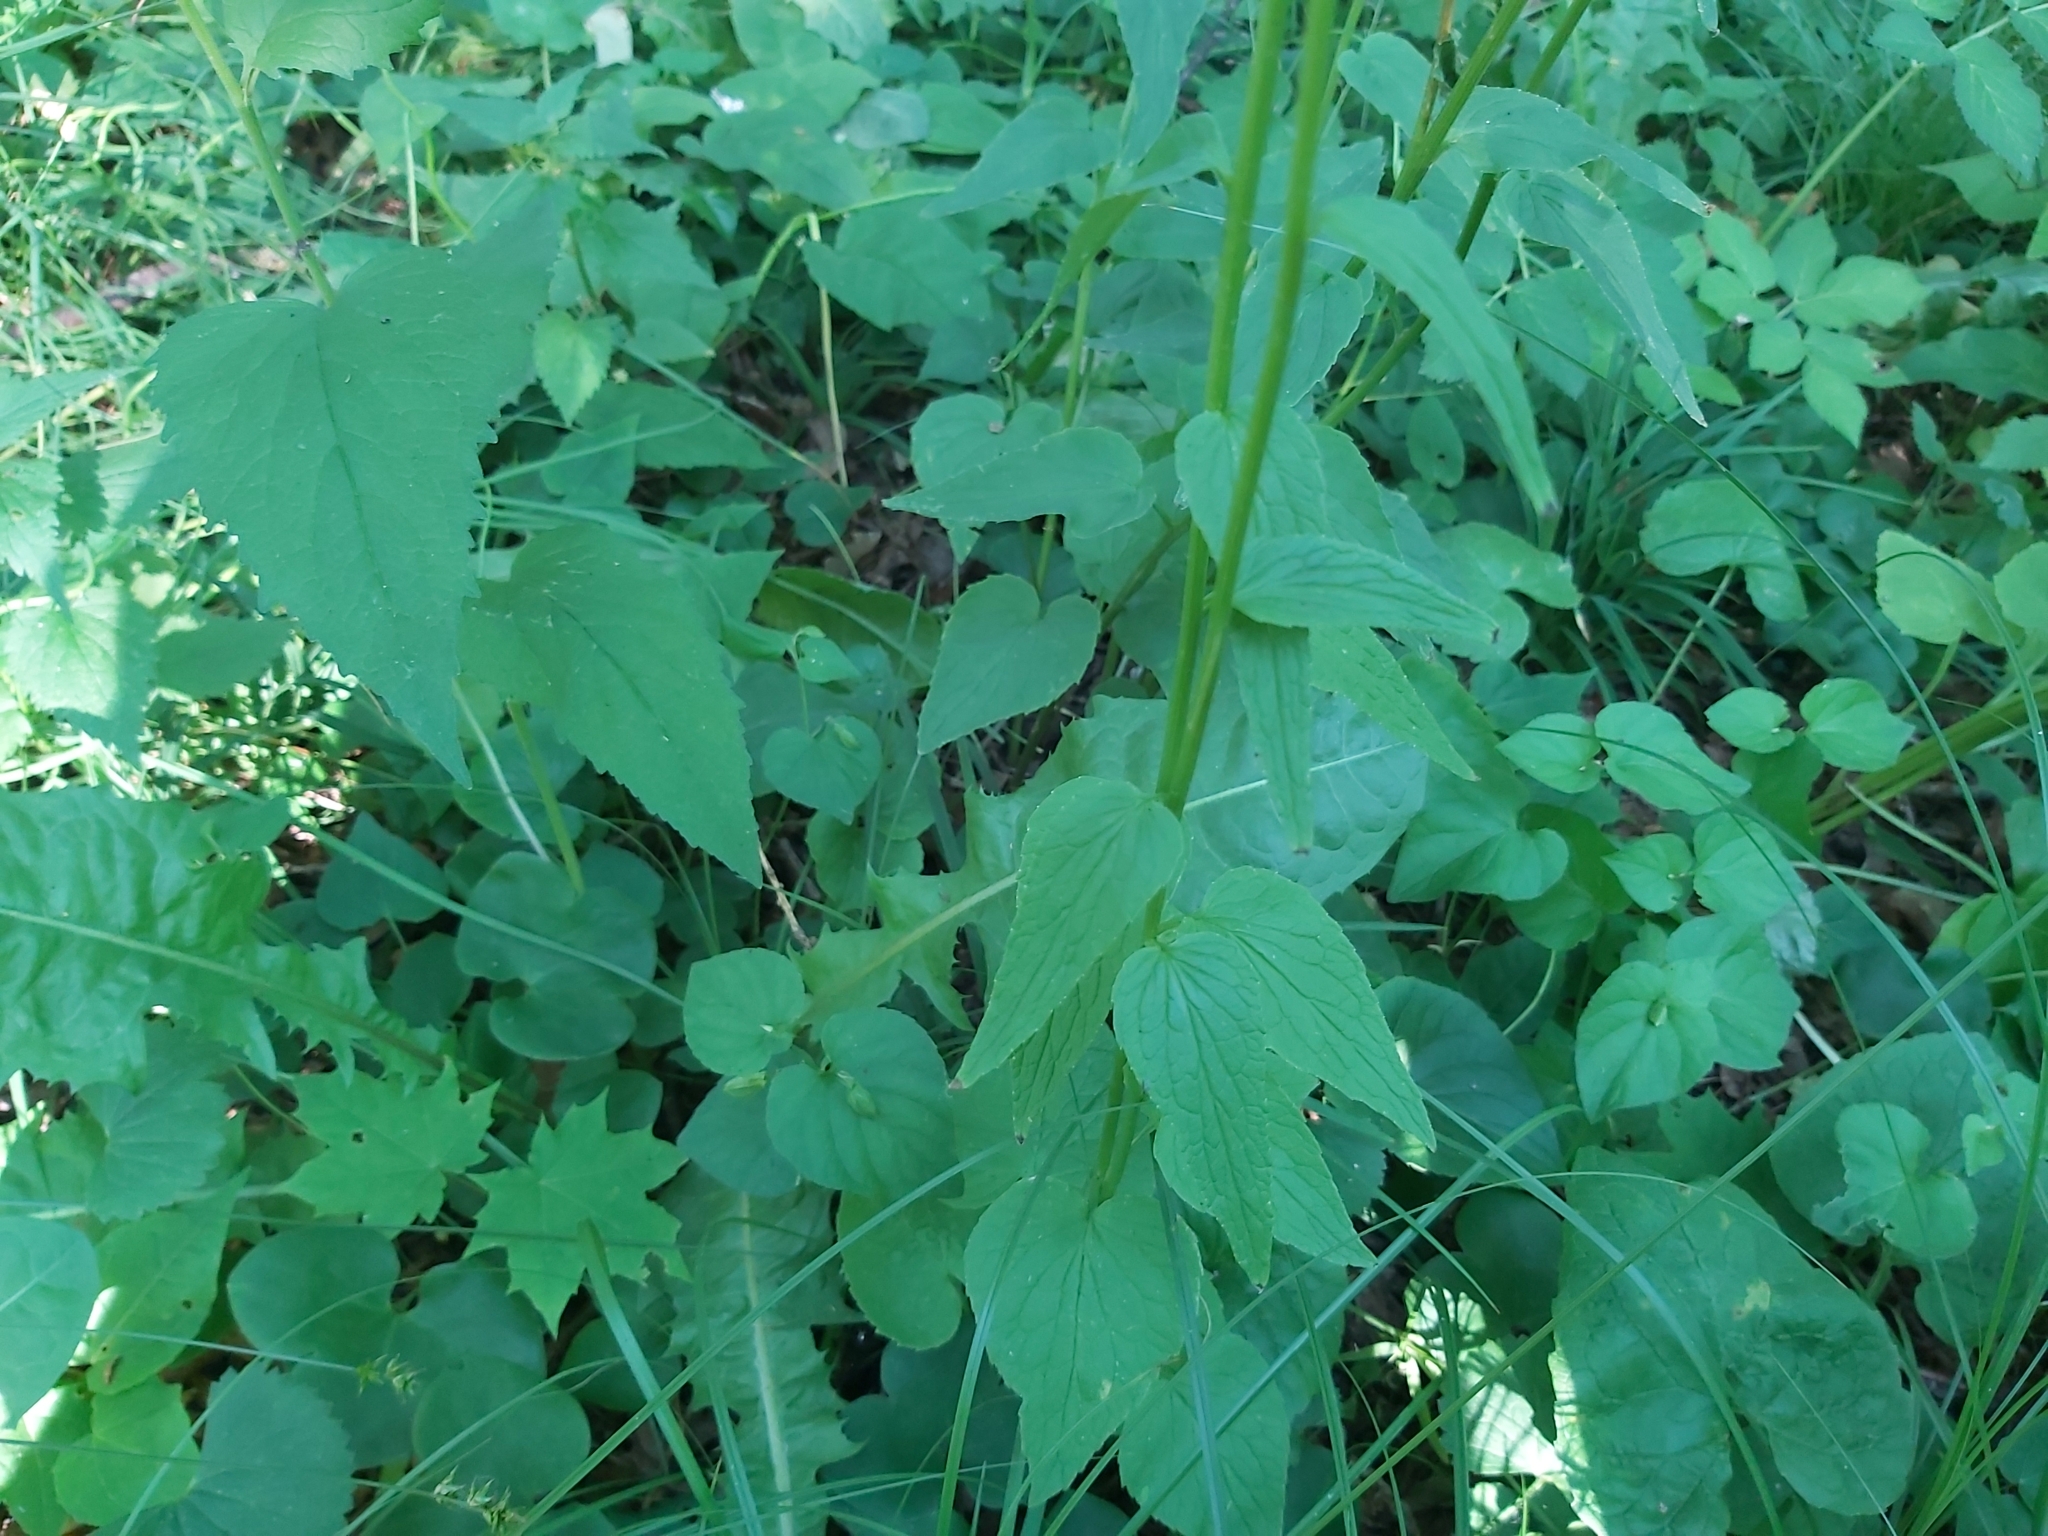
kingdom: Plantae
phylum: Tracheophyta
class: Magnoliopsida
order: Asterales
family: Campanulaceae
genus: Phyteuma
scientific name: Phyteuma spicatum
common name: Spiked rampion
